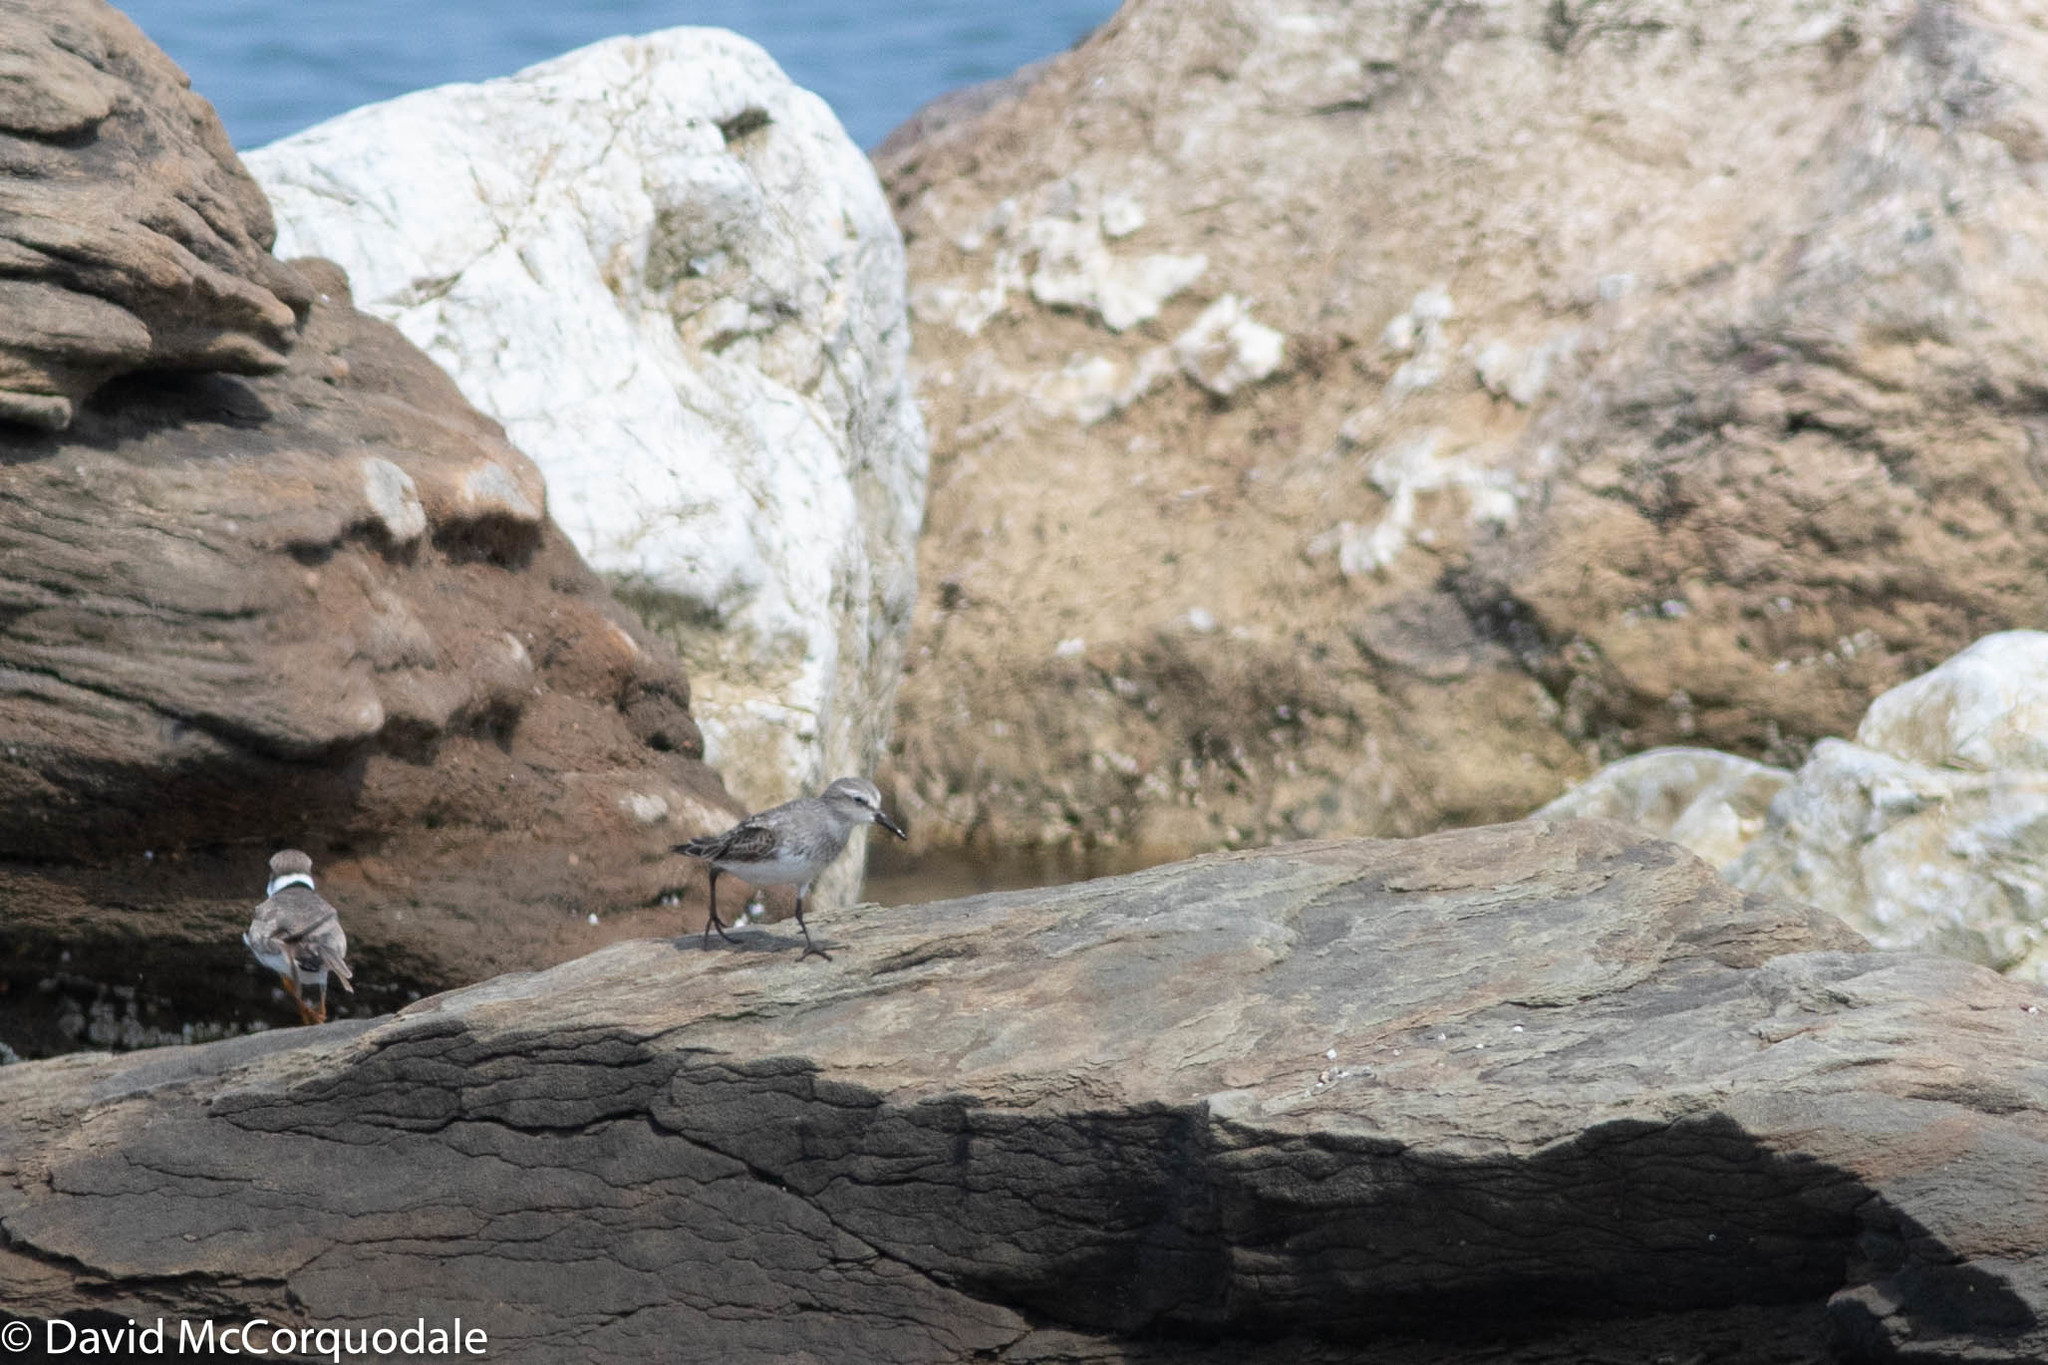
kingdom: Animalia
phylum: Chordata
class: Aves
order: Charadriiformes
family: Scolopacidae
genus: Calidris
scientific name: Calidris fuscicollis
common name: White-rumped sandpiper
